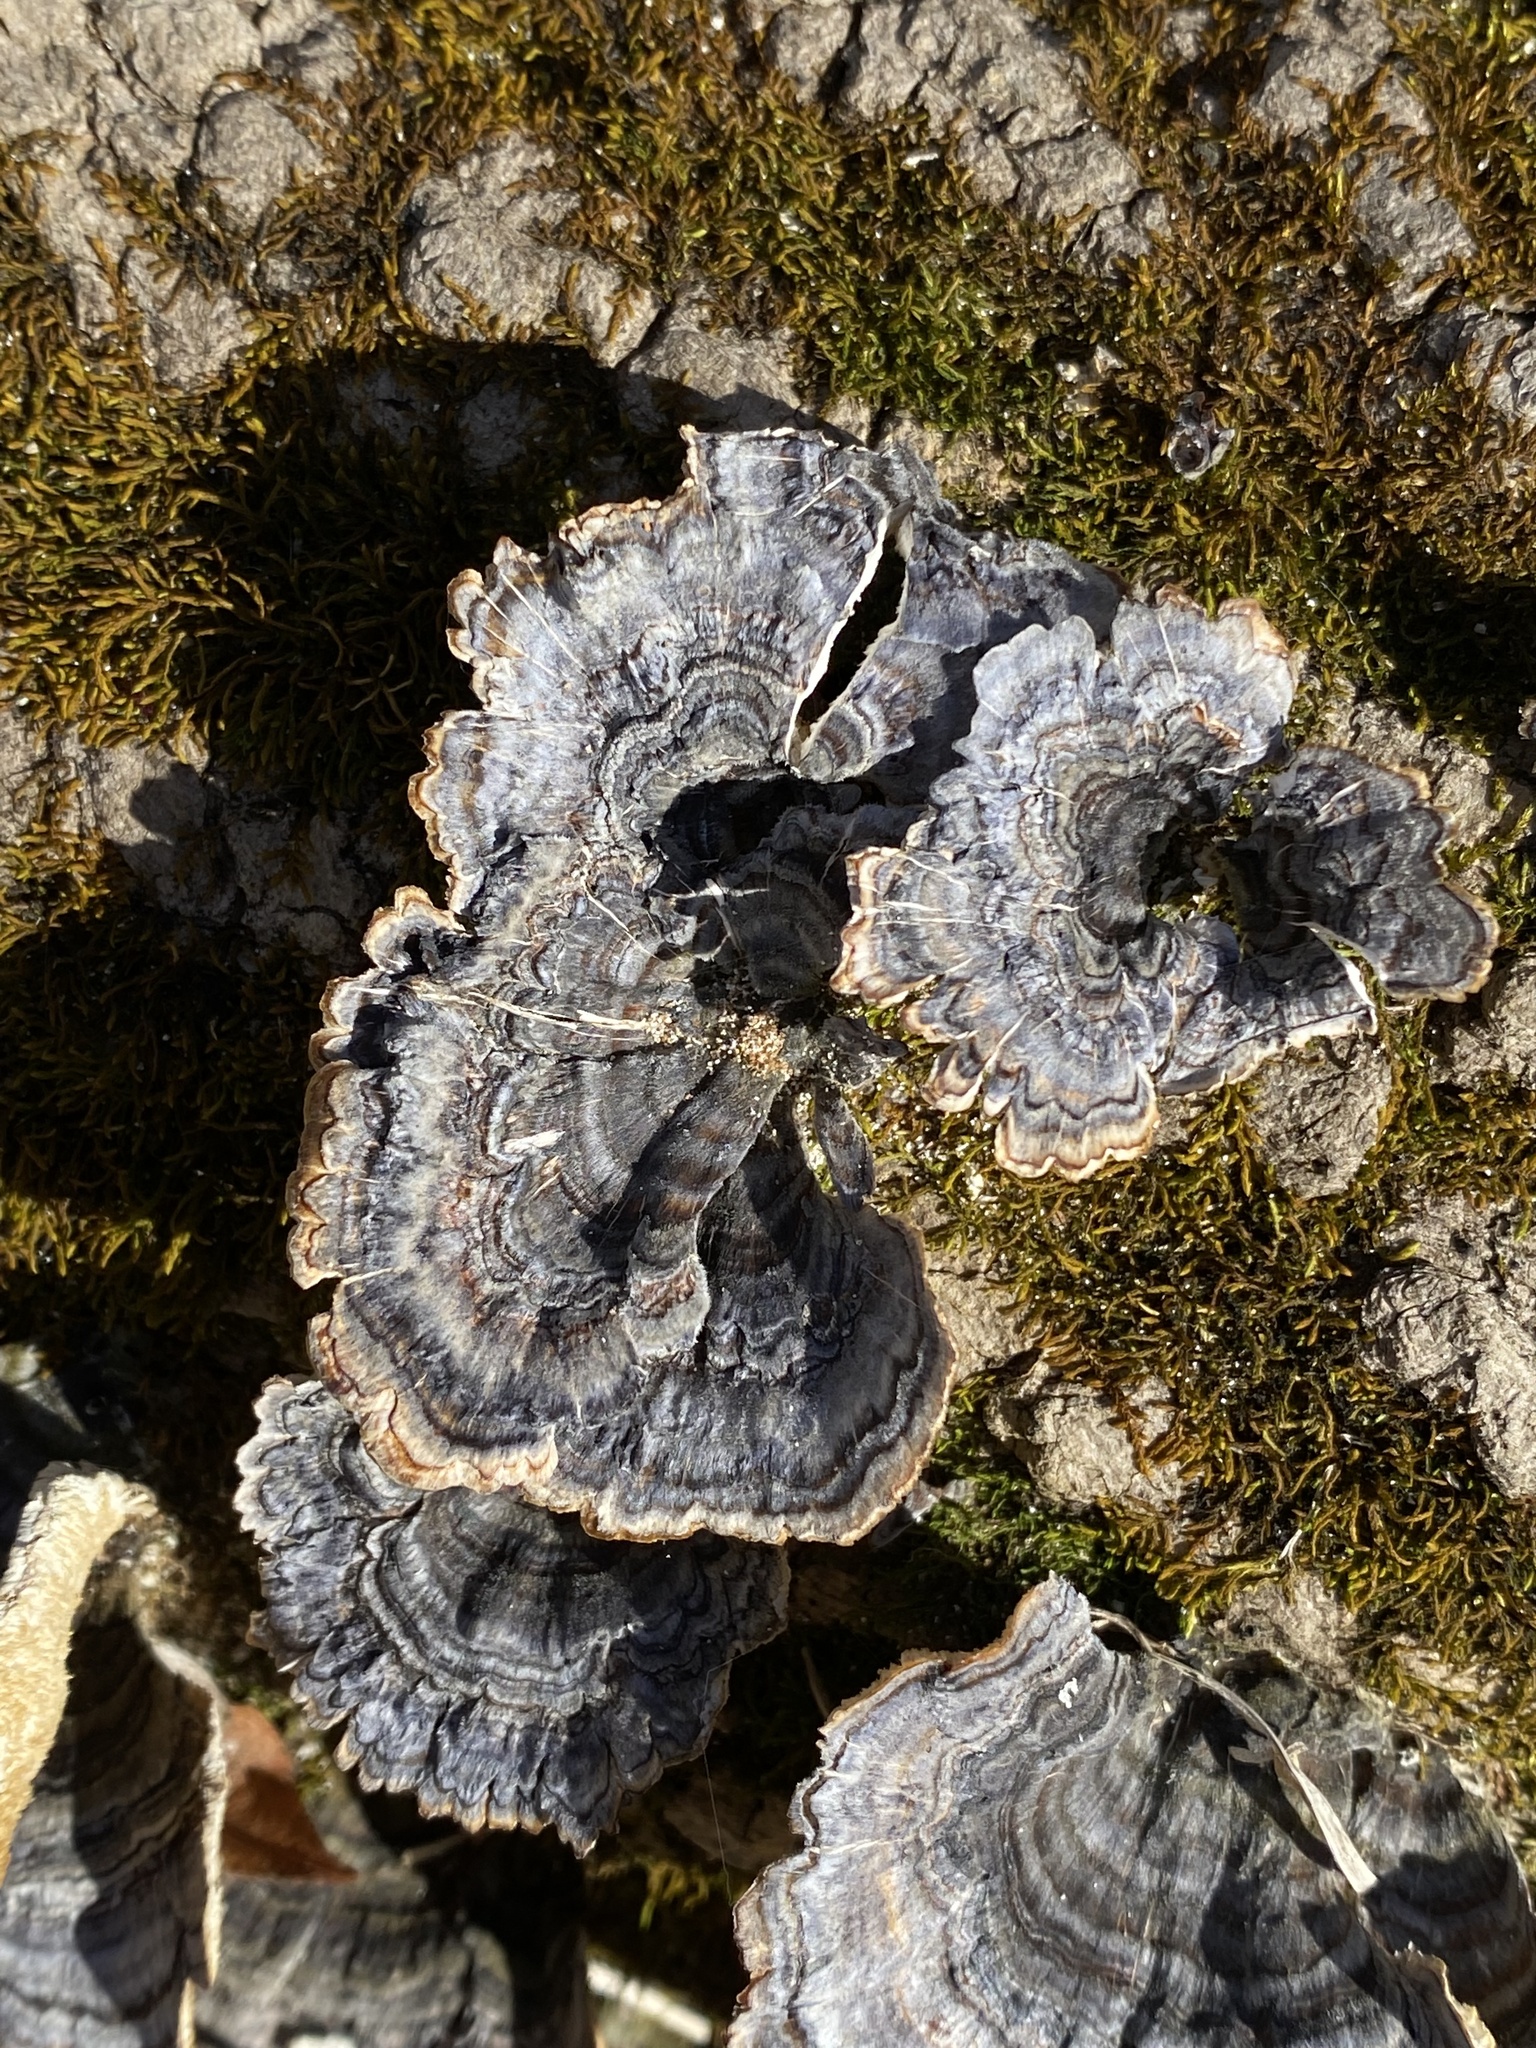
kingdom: Fungi
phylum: Basidiomycota
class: Agaricomycetes
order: Polyporales
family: Polyporaceae
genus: Trametes
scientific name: Trametes versicolor
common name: Turkeytail
